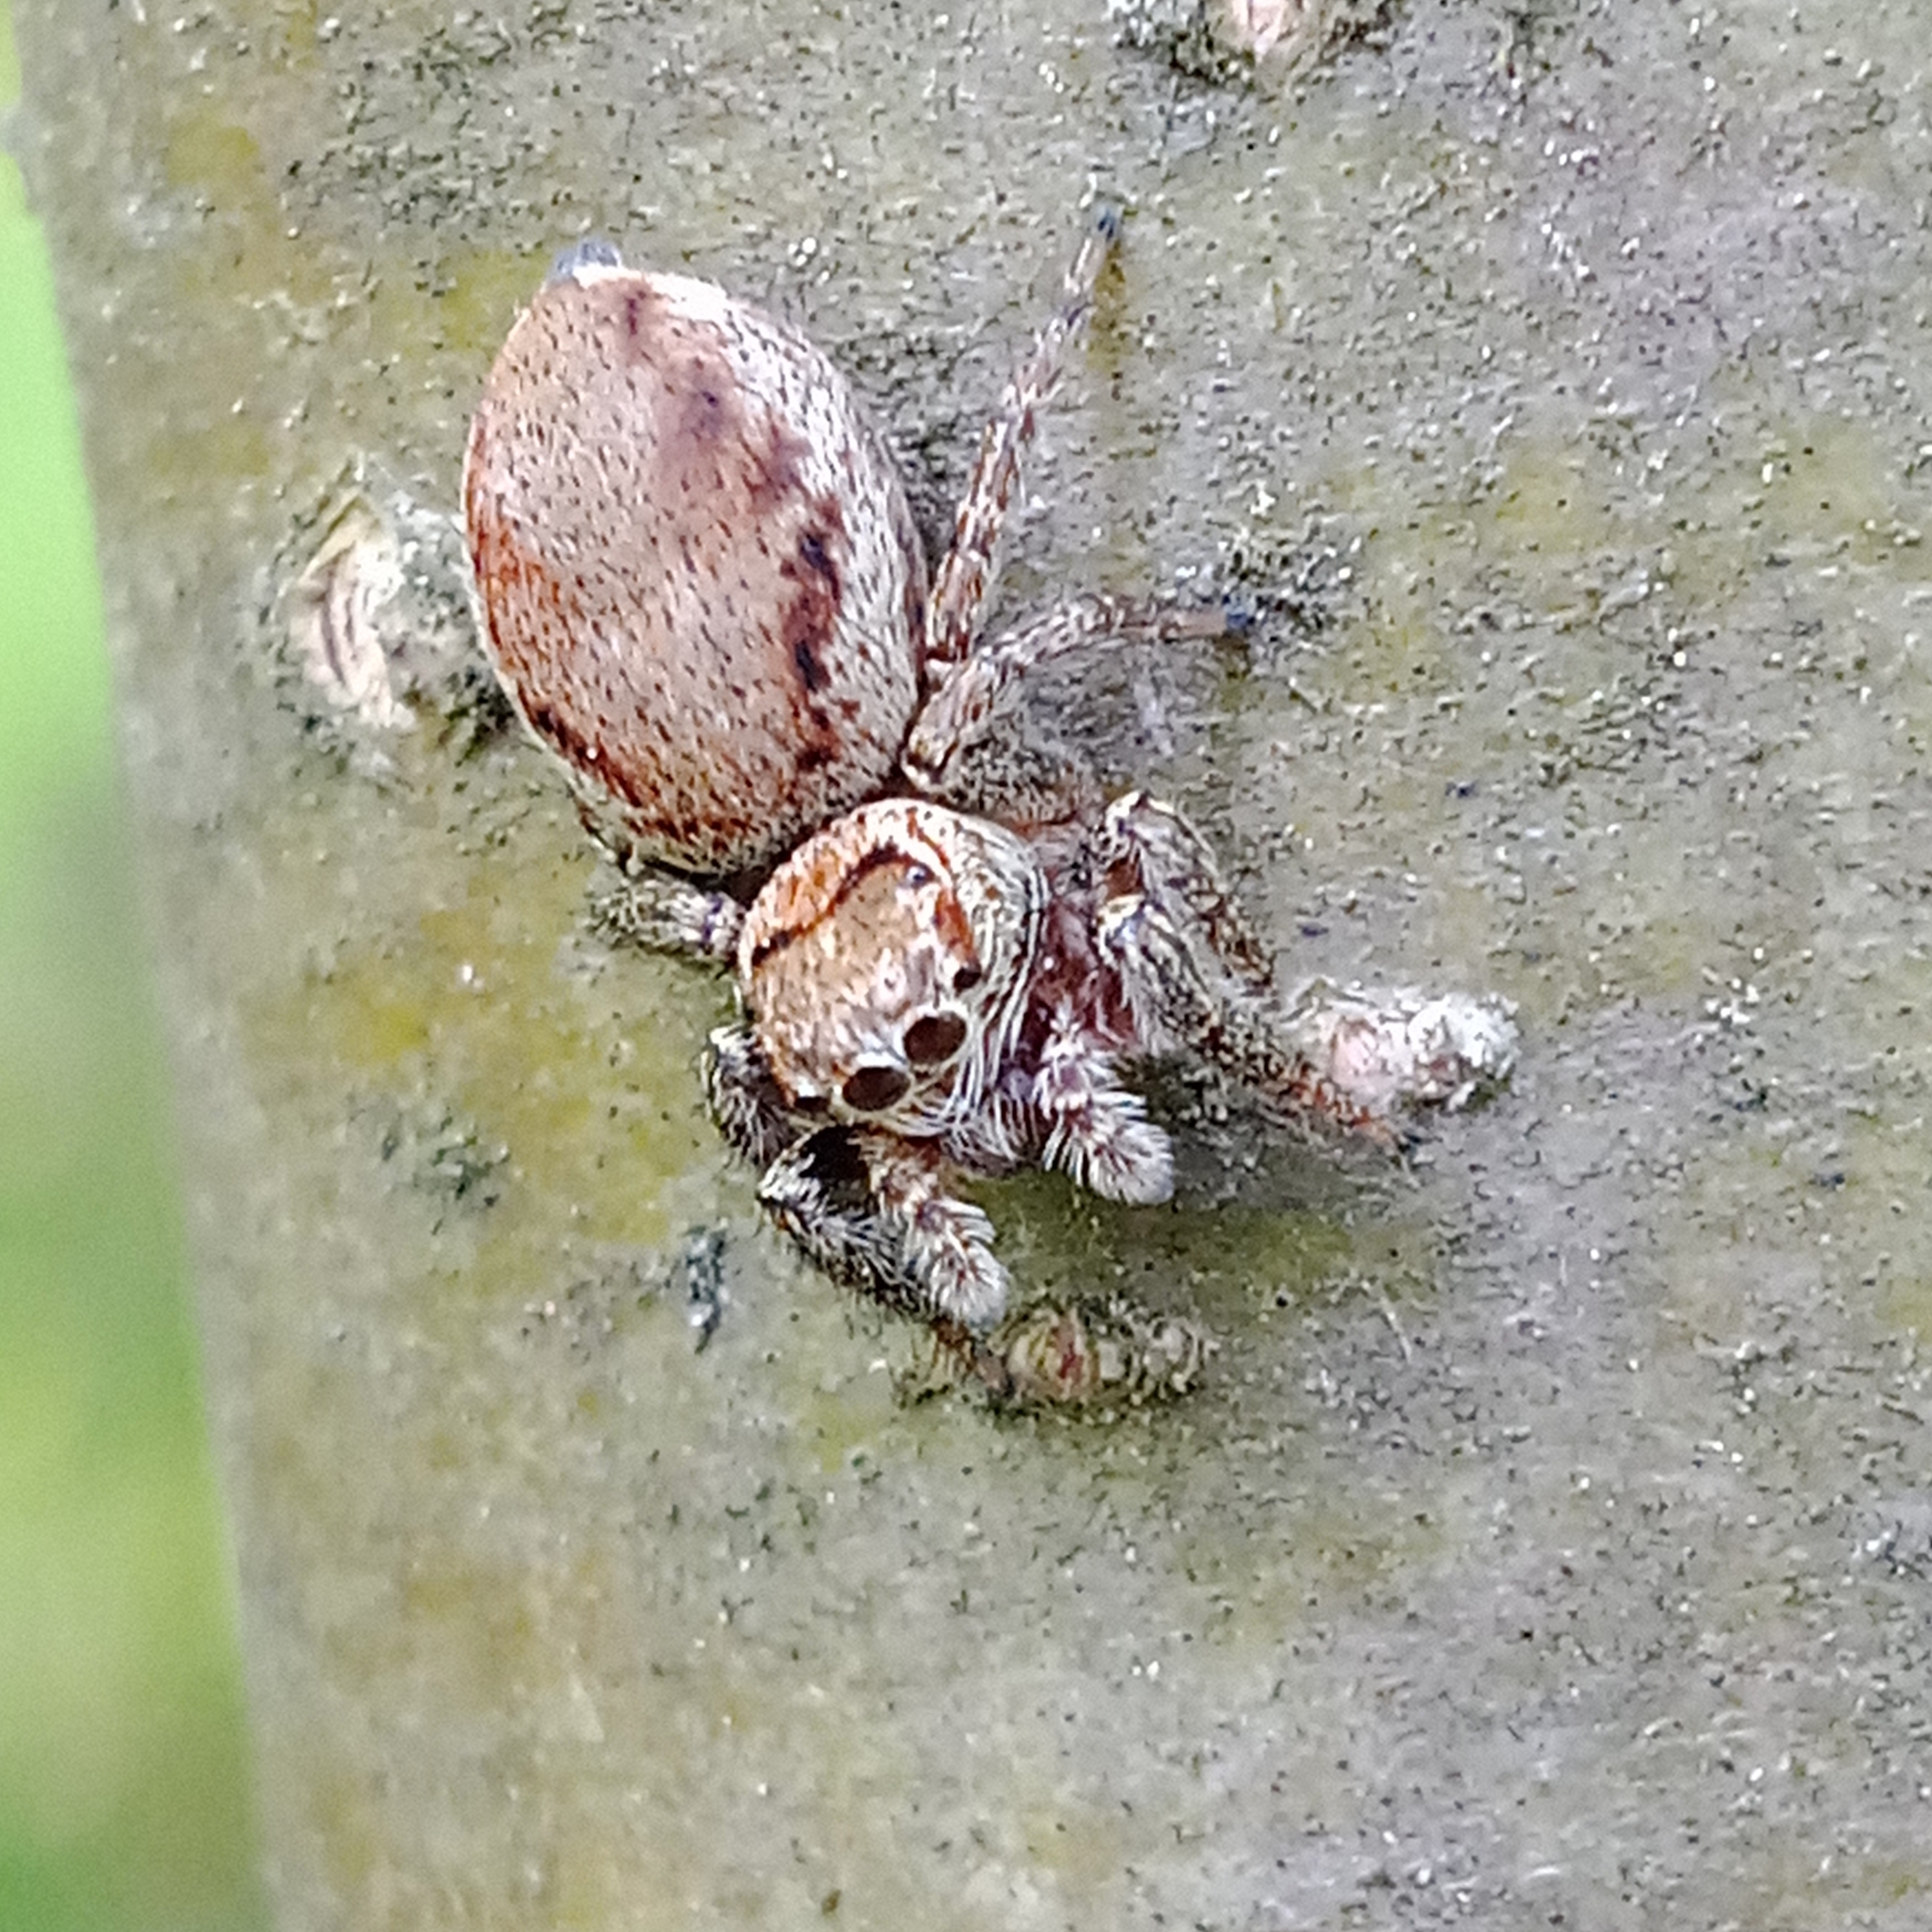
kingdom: Animalia
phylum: Arthropoda
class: Arachnida
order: Araneae
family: Salticidae
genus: Evarcha
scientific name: Evarcha falcata
